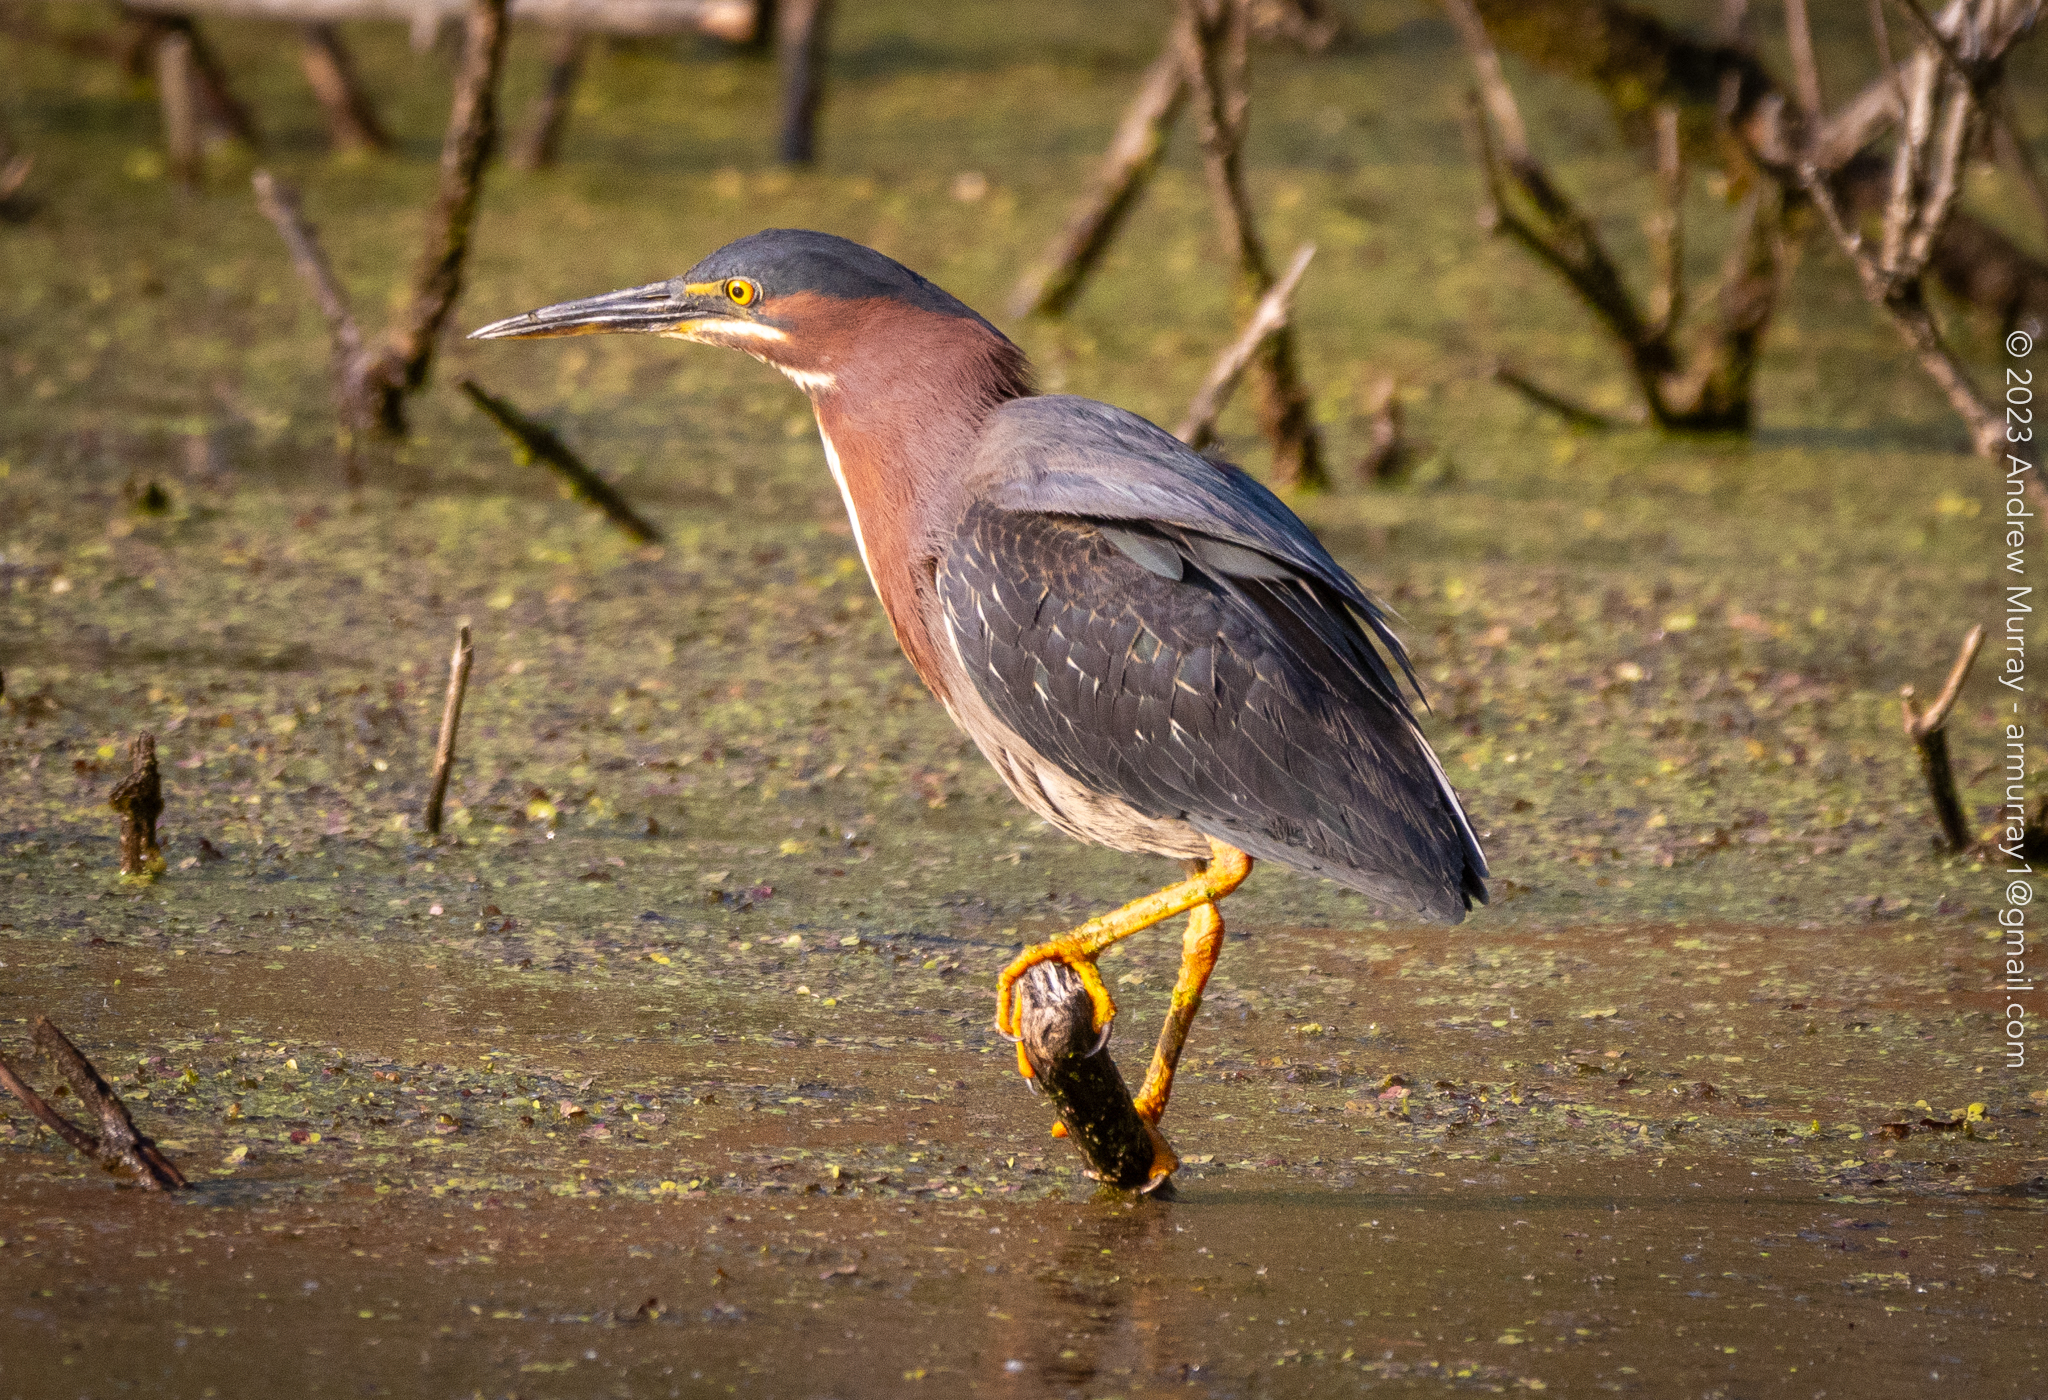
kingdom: Animalia
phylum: Chordata
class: Aves
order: Pelecaniformes
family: Ardeidae
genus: Butorides
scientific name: Butorides virescens
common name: Green heron
